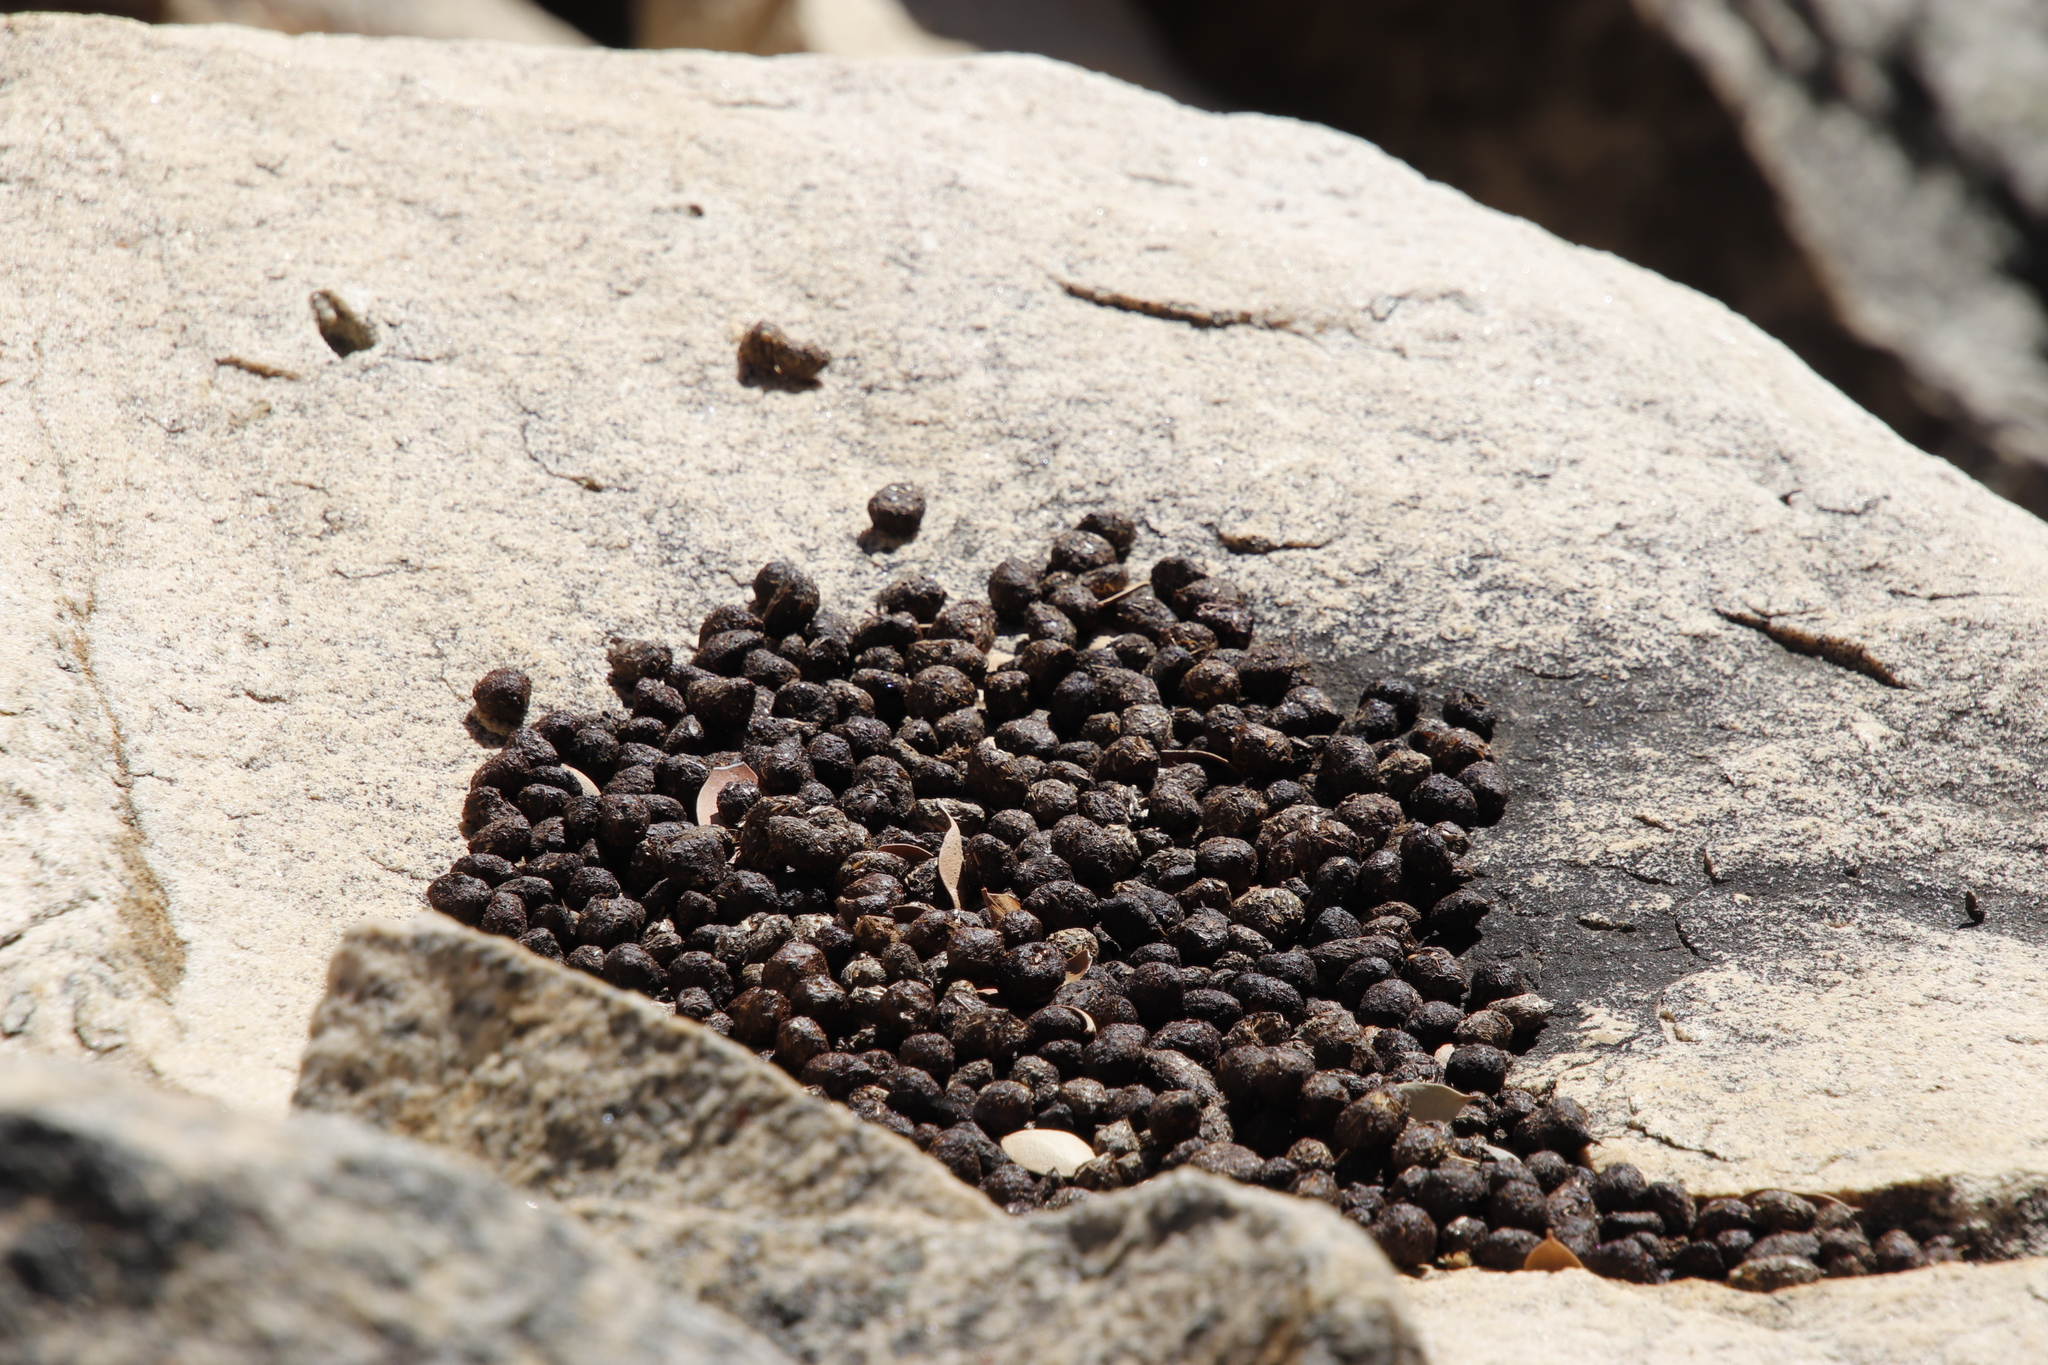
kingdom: Animalia
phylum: Chordata
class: Mammalia
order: Hyracoidea
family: Procaviidae
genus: Procavia
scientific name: Procavia capensis
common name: Rock hyrax
